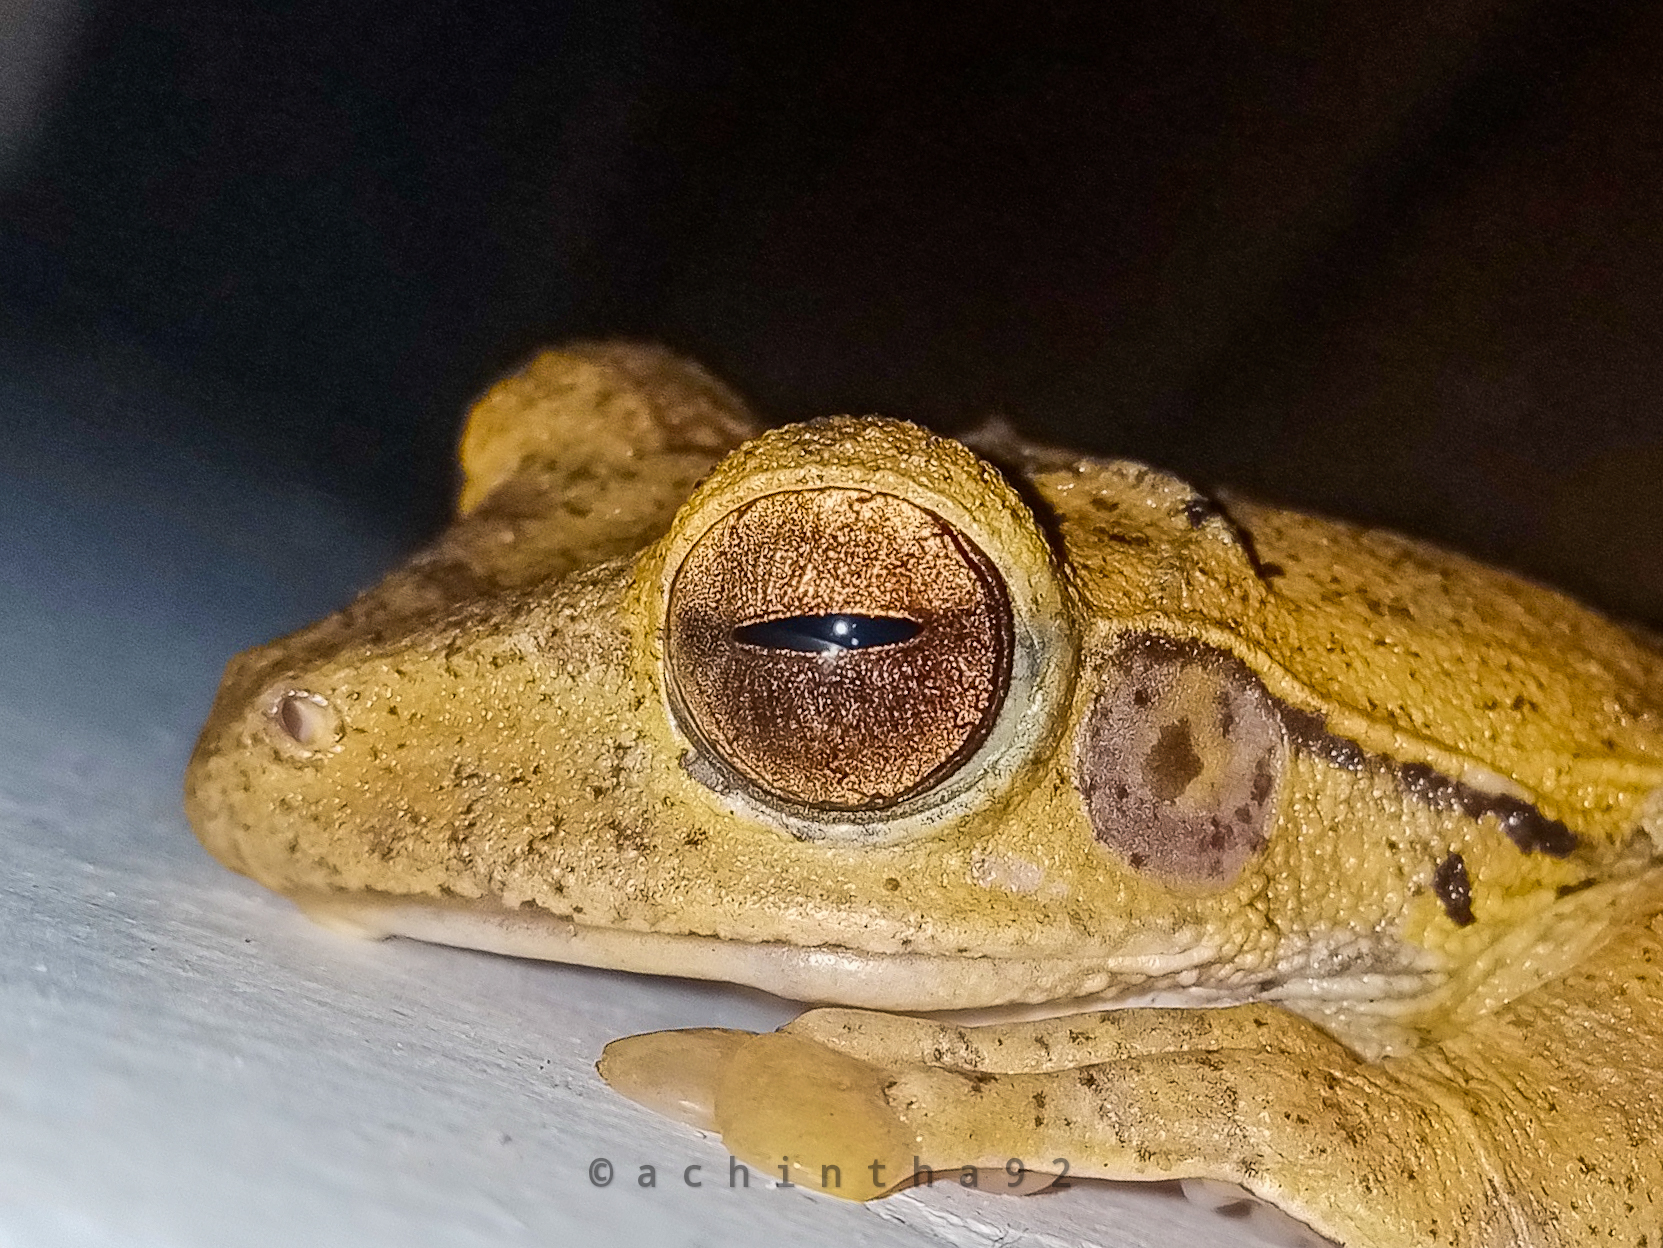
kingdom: Animalia
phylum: Chordata
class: Amphibia
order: Anura
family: Rhacophoridae
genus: Polypedates
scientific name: Polypedates cruciger
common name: Common hour-glass tree-frog
